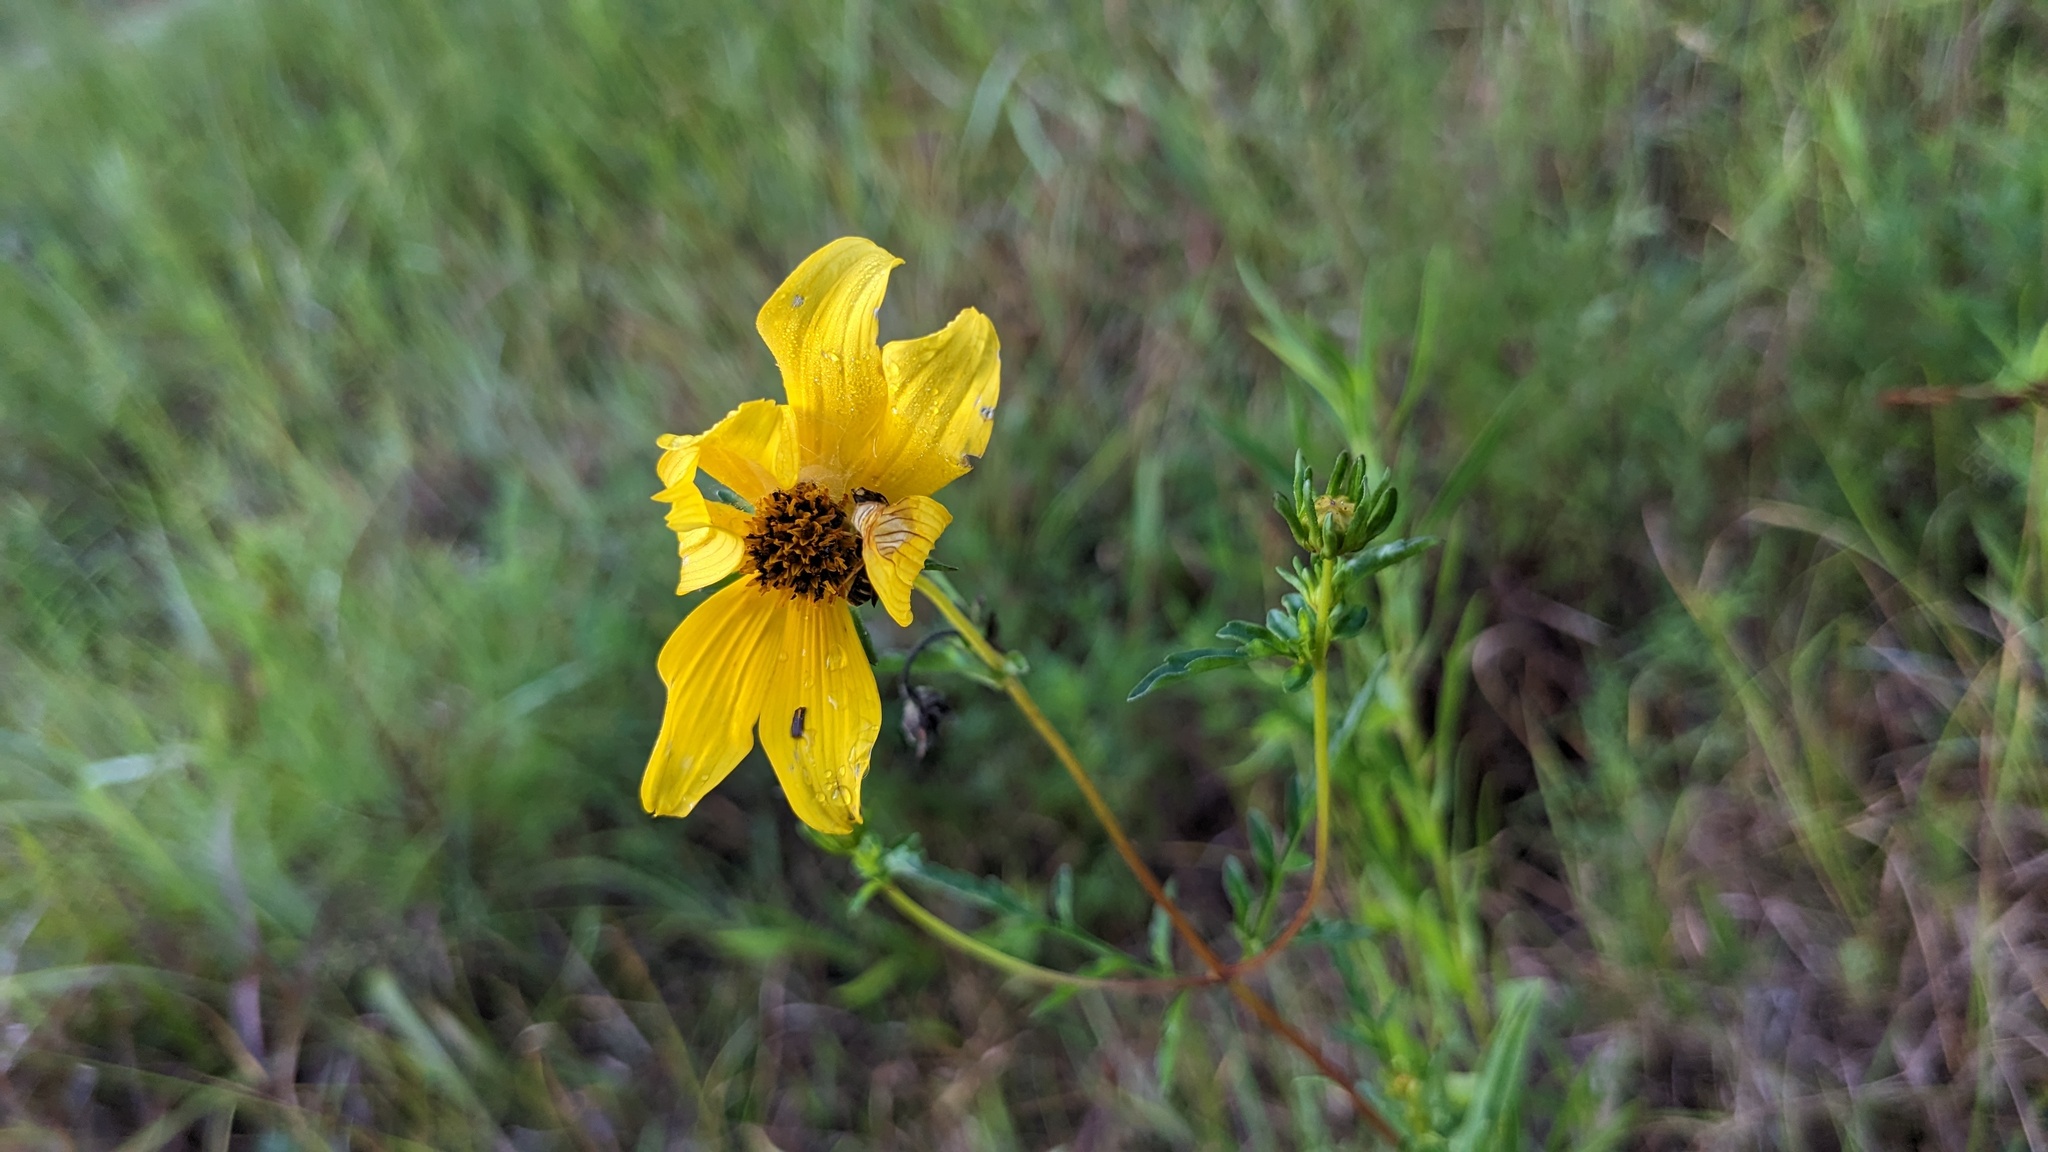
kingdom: Plantae
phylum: Tracheophyta
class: Magnoliopsida
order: Asterales
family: Asteraceae
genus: Bidens
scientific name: Bidens mitis
